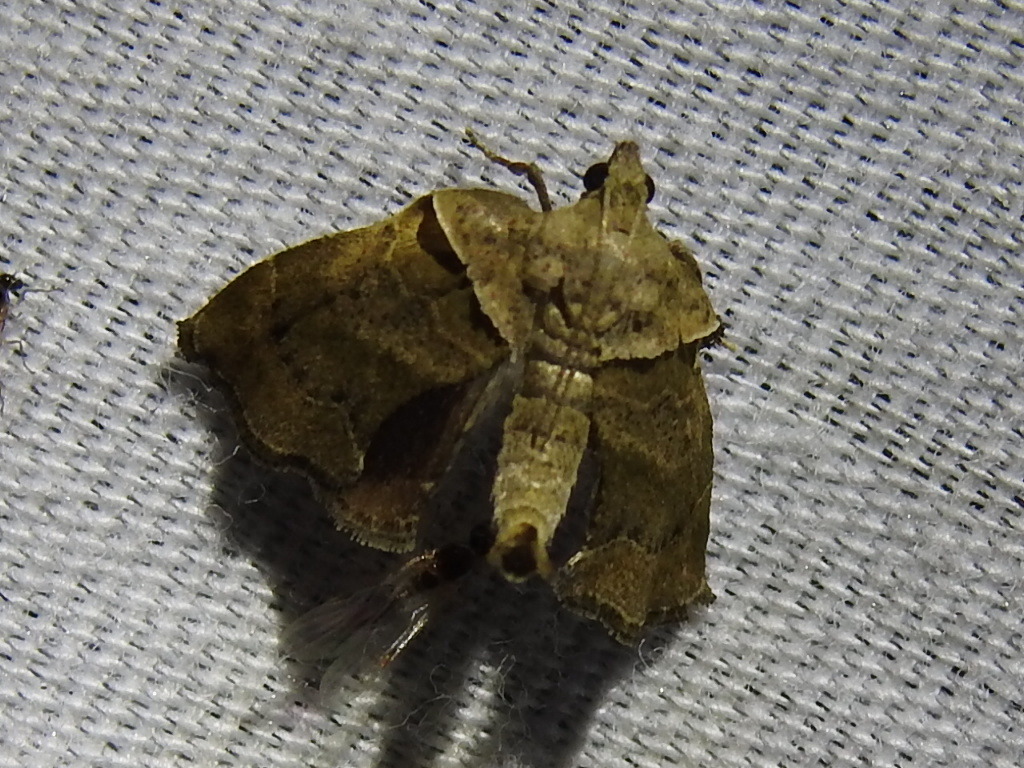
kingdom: Animalia
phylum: Arthropoda
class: Insecta
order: Lepidoptera
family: Pyralidae
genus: Tosale
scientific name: Tosale aucta
